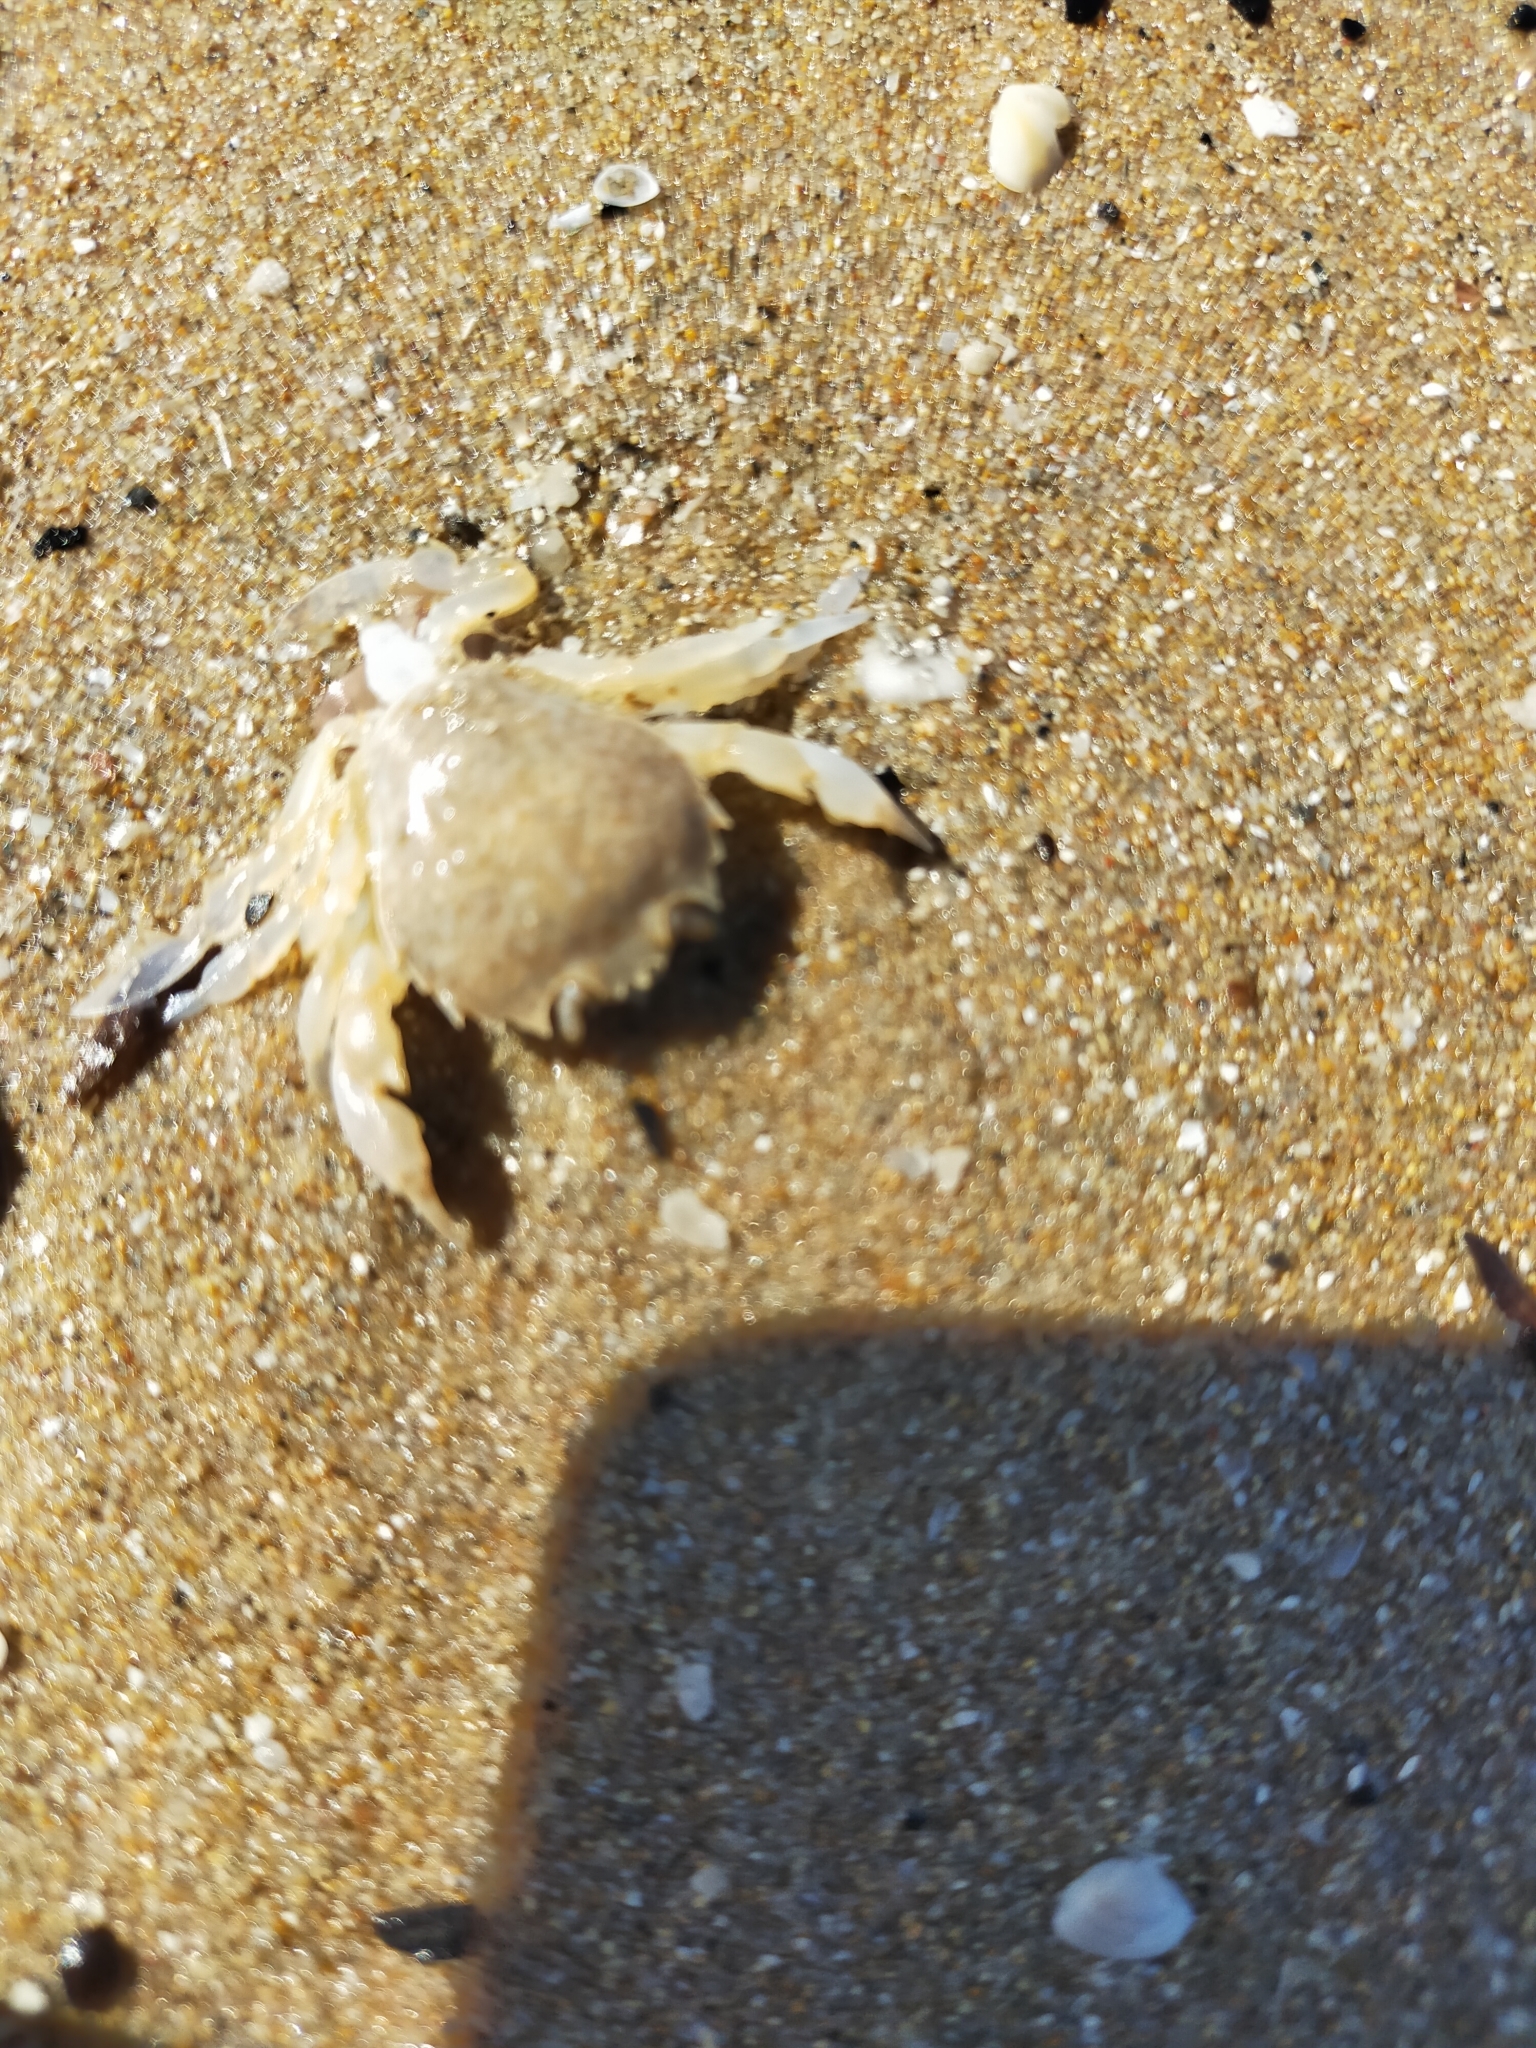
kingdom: Animalia
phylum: Arthropoda
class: Malacostraca
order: Decapoda
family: Carcinidae
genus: Portumnus
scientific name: Portumnus latipes
